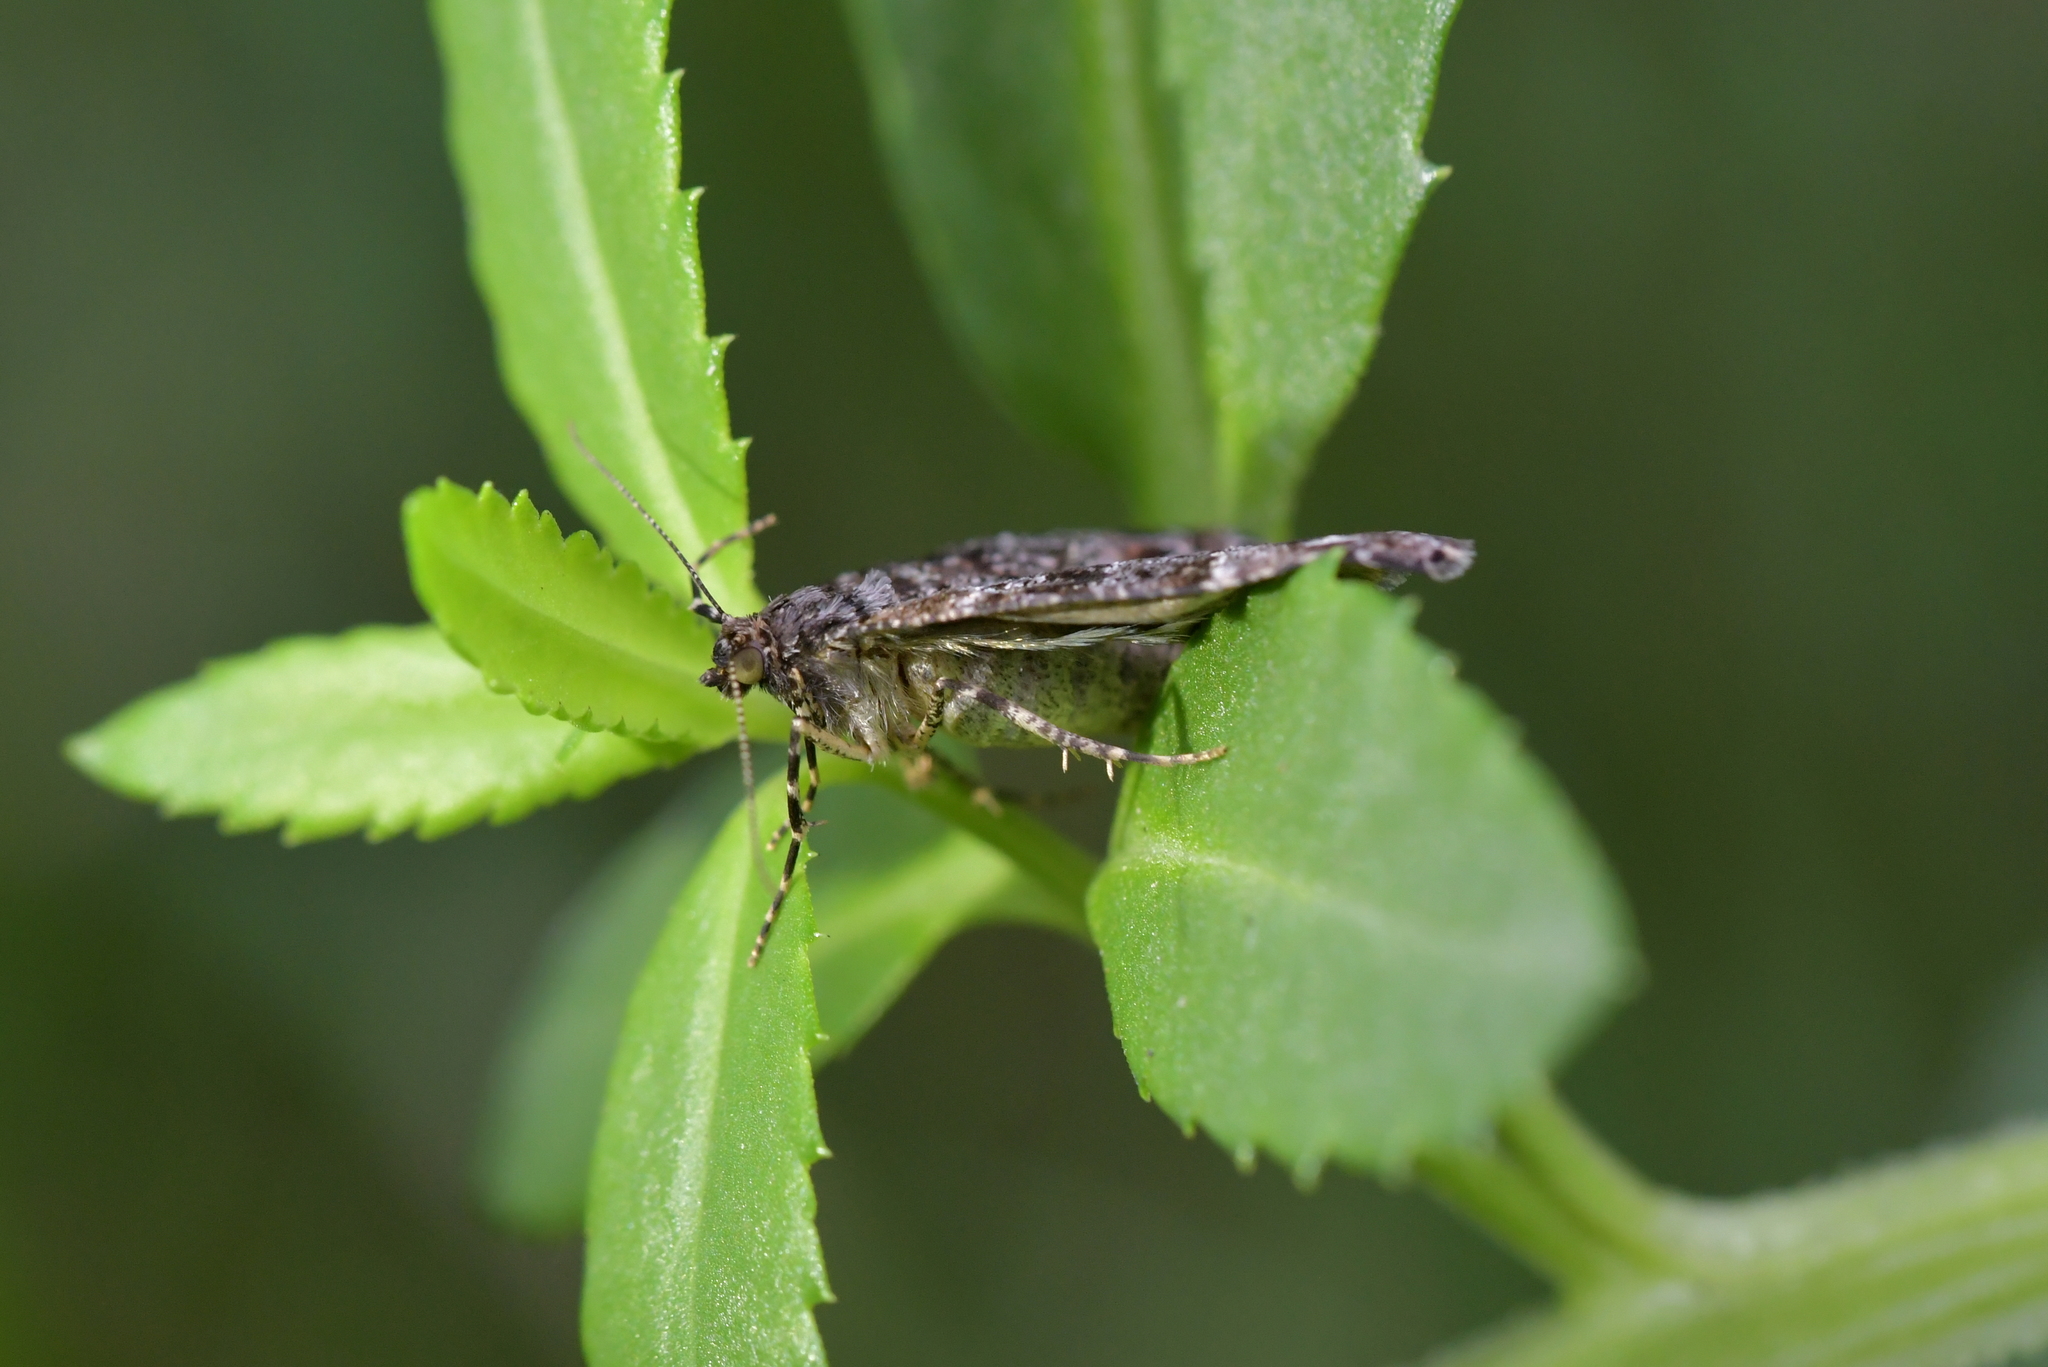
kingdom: Animalia
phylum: Arthropoda
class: Insecta
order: Lepidoptera
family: Geometridae
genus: Pseudocoremia
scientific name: Pseudocoremia productata
